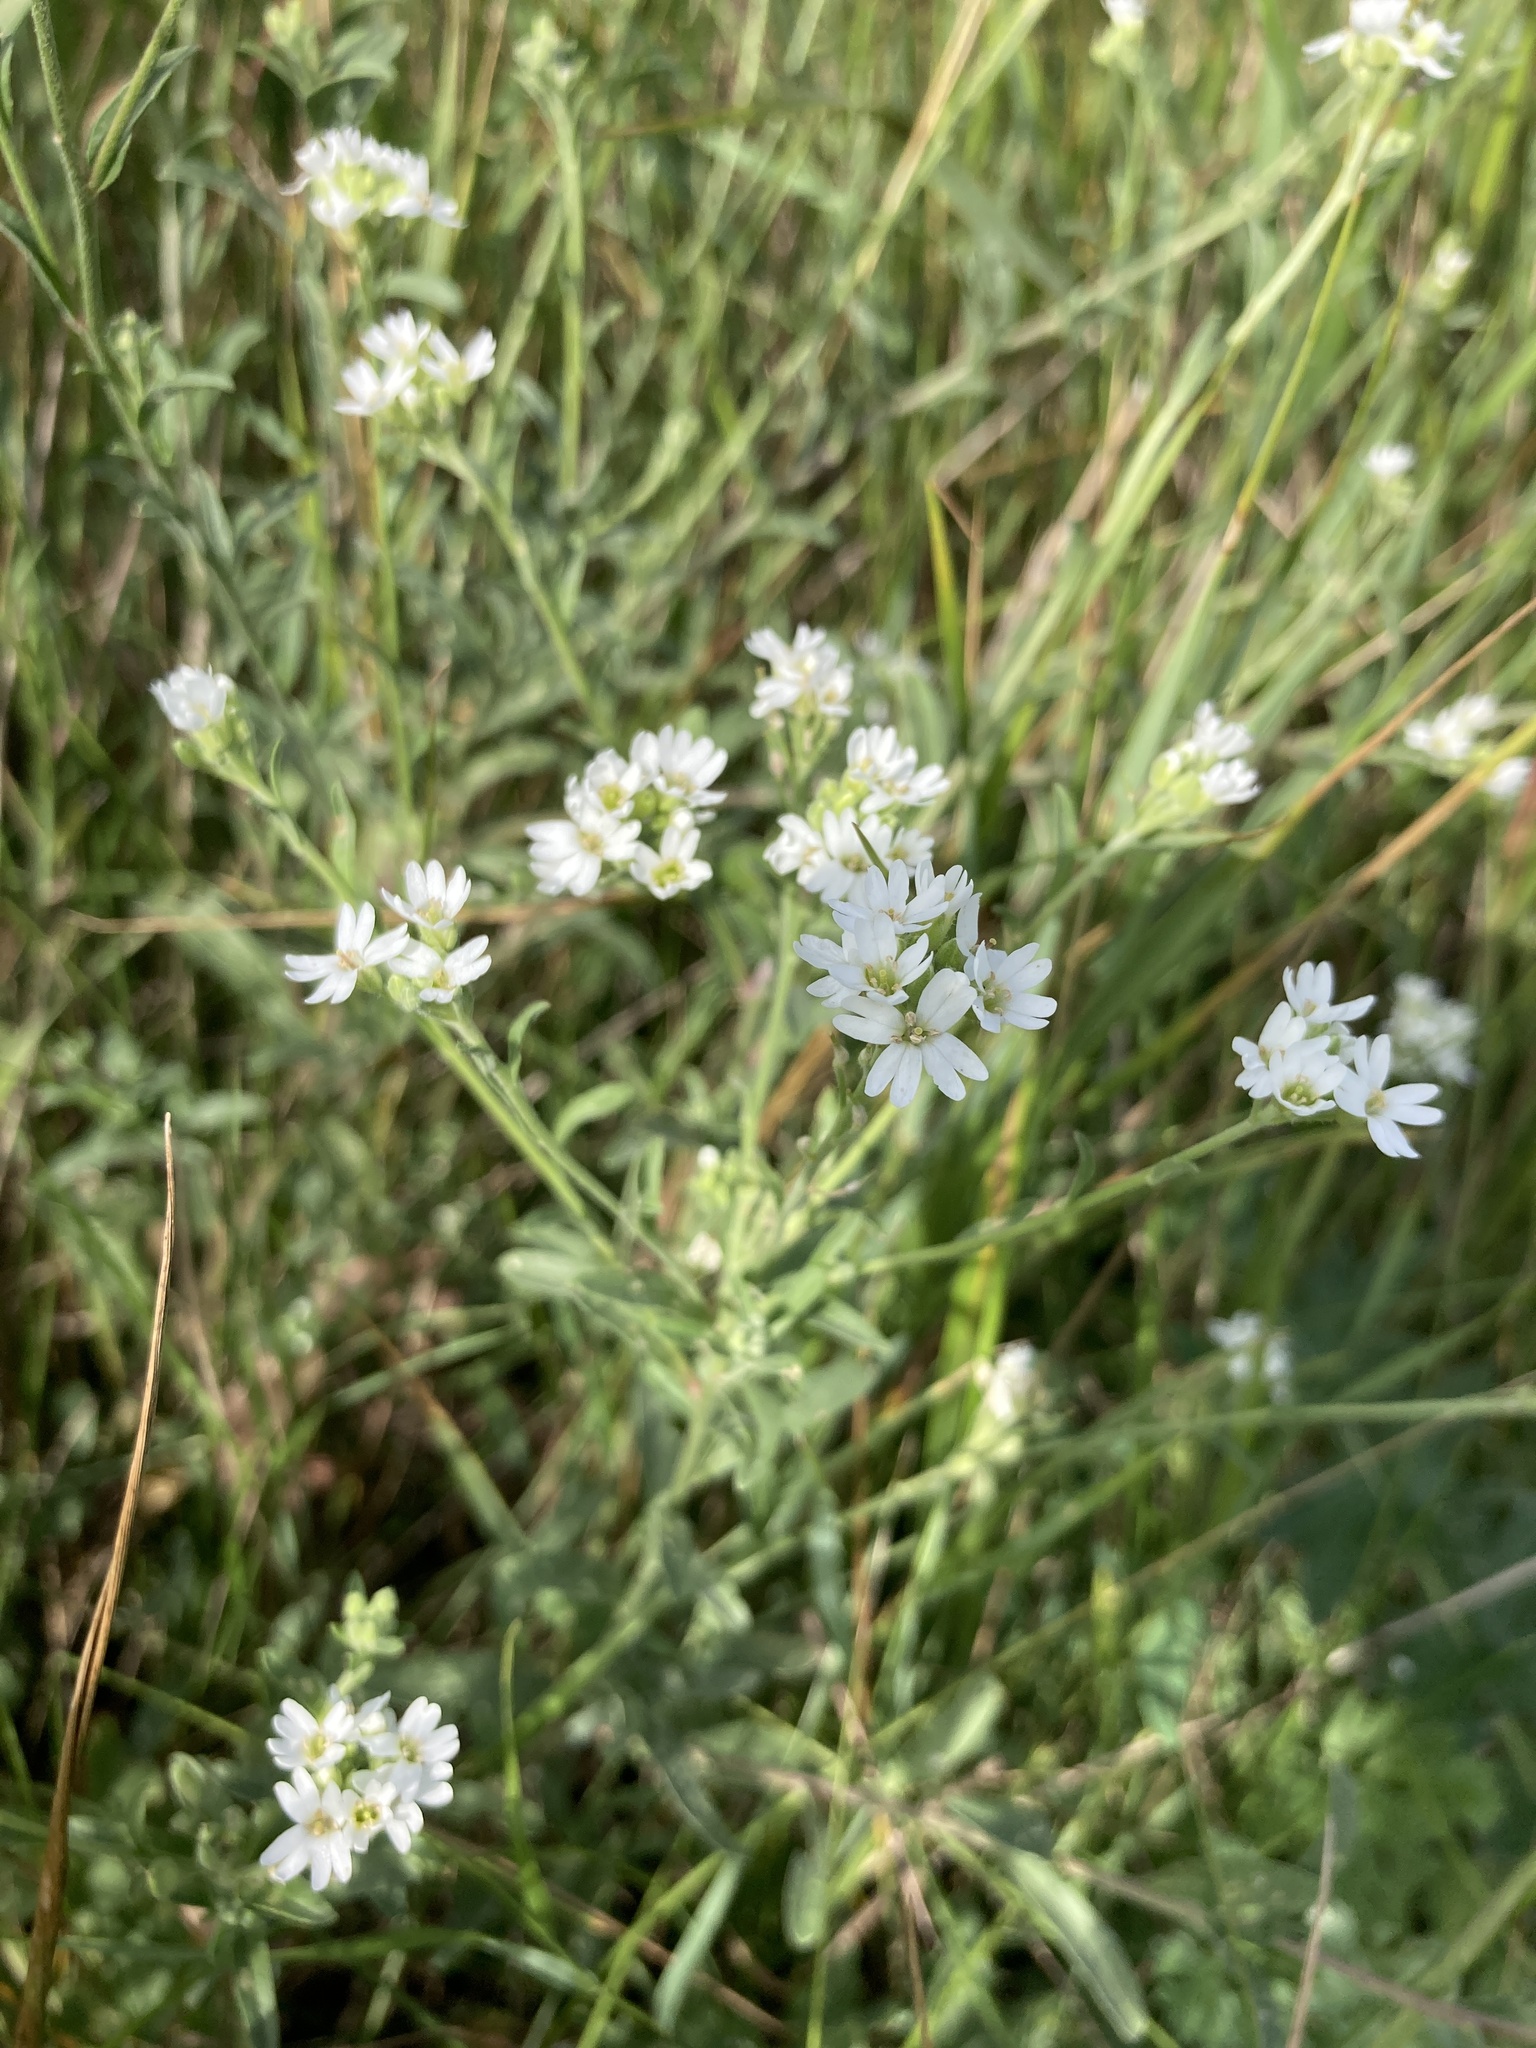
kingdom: Plantae
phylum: Tracheophyta
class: Magnoliopsida
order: Brassicales
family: Brassicaceae
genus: Berteroa
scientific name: Berteroa incana
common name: Hoary alison
